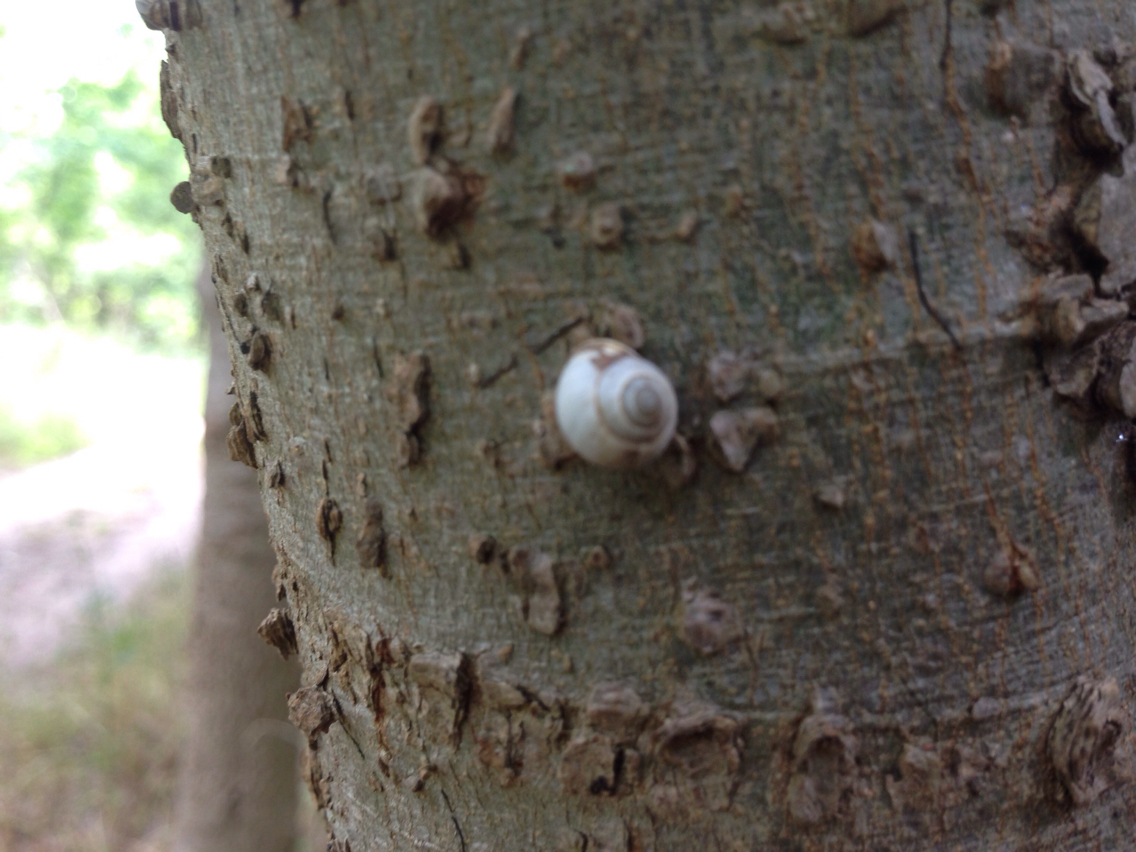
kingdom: Animalia
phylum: Mollusca
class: Gastropoda
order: Cycloneritida
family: Helicinidae
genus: Helicina
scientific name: Helicina orbiculata
